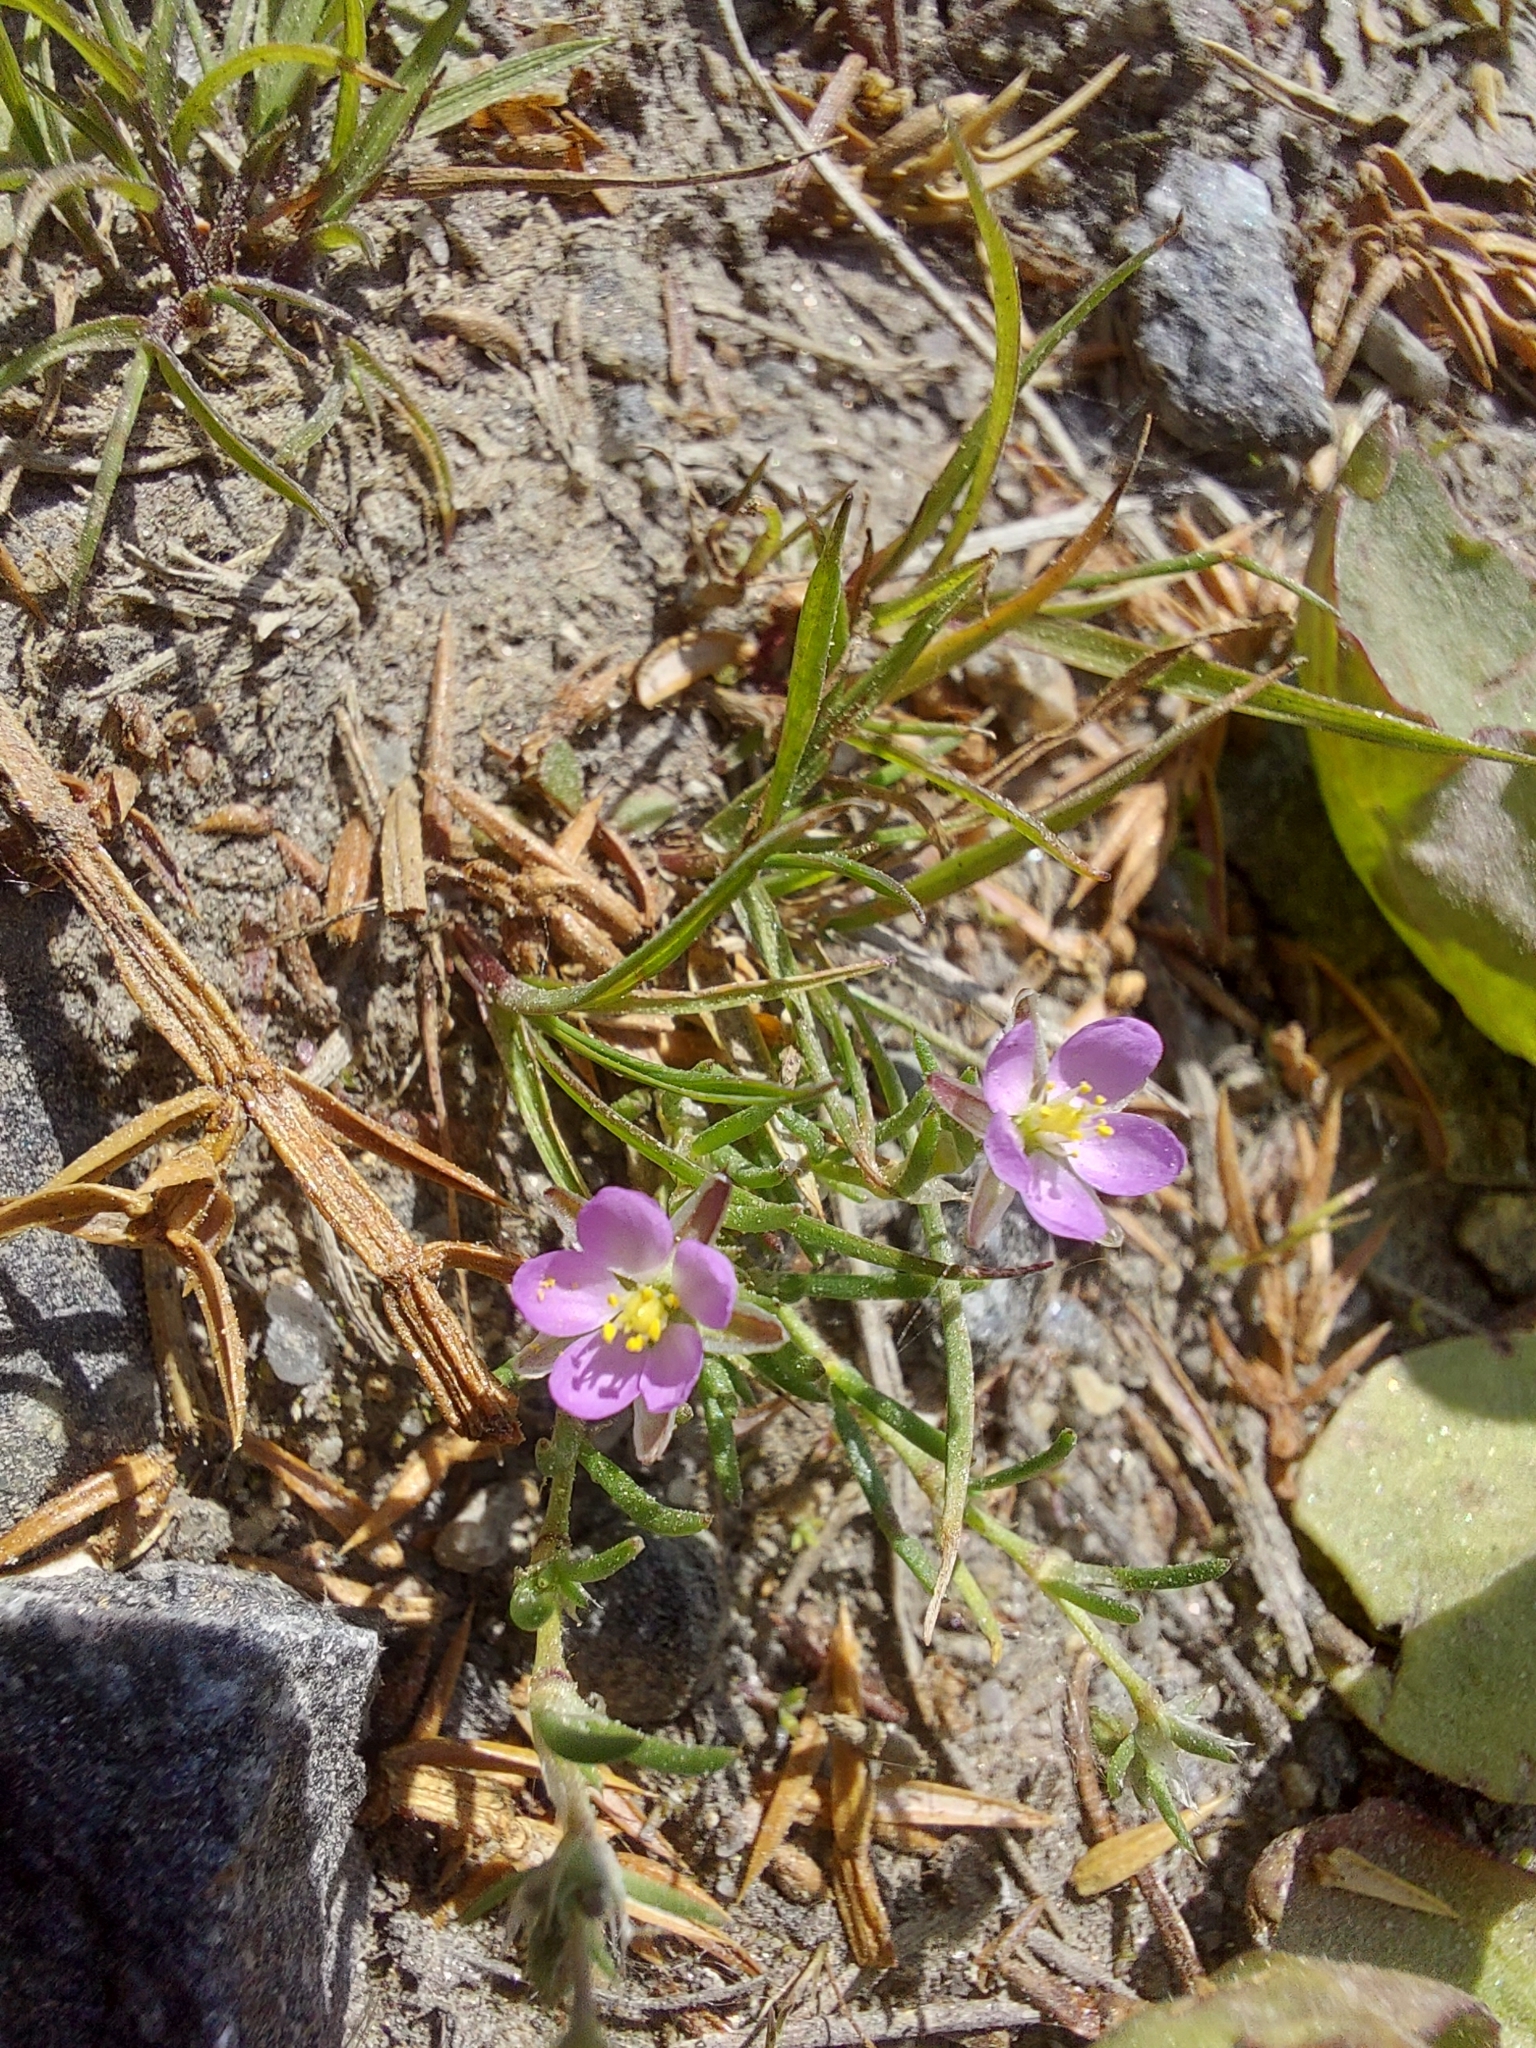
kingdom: Plantae
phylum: Tracheophyta
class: Magnoliopsida
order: Caryophyllales
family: Caryophyllaceae
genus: Spergularia
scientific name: Spergularia rubra
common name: Red sand-spurrey
